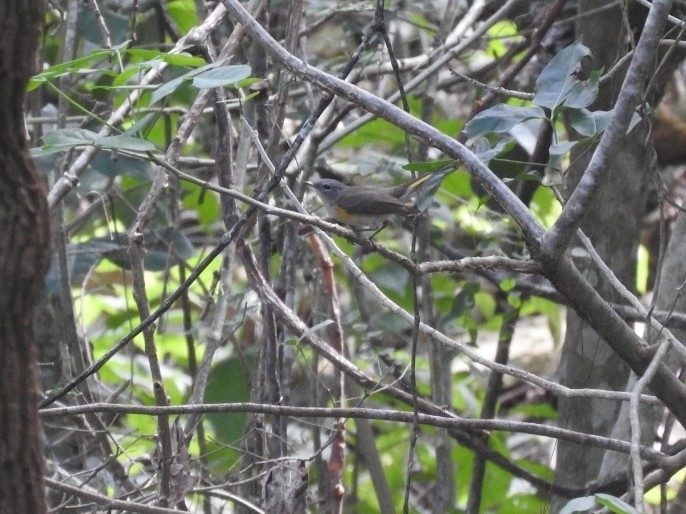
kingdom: Animalia
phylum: Chordata
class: Aves
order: Passeriformes
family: Parulidae
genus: Setophaga
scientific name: Setophaga ruticilla
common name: American redstart
